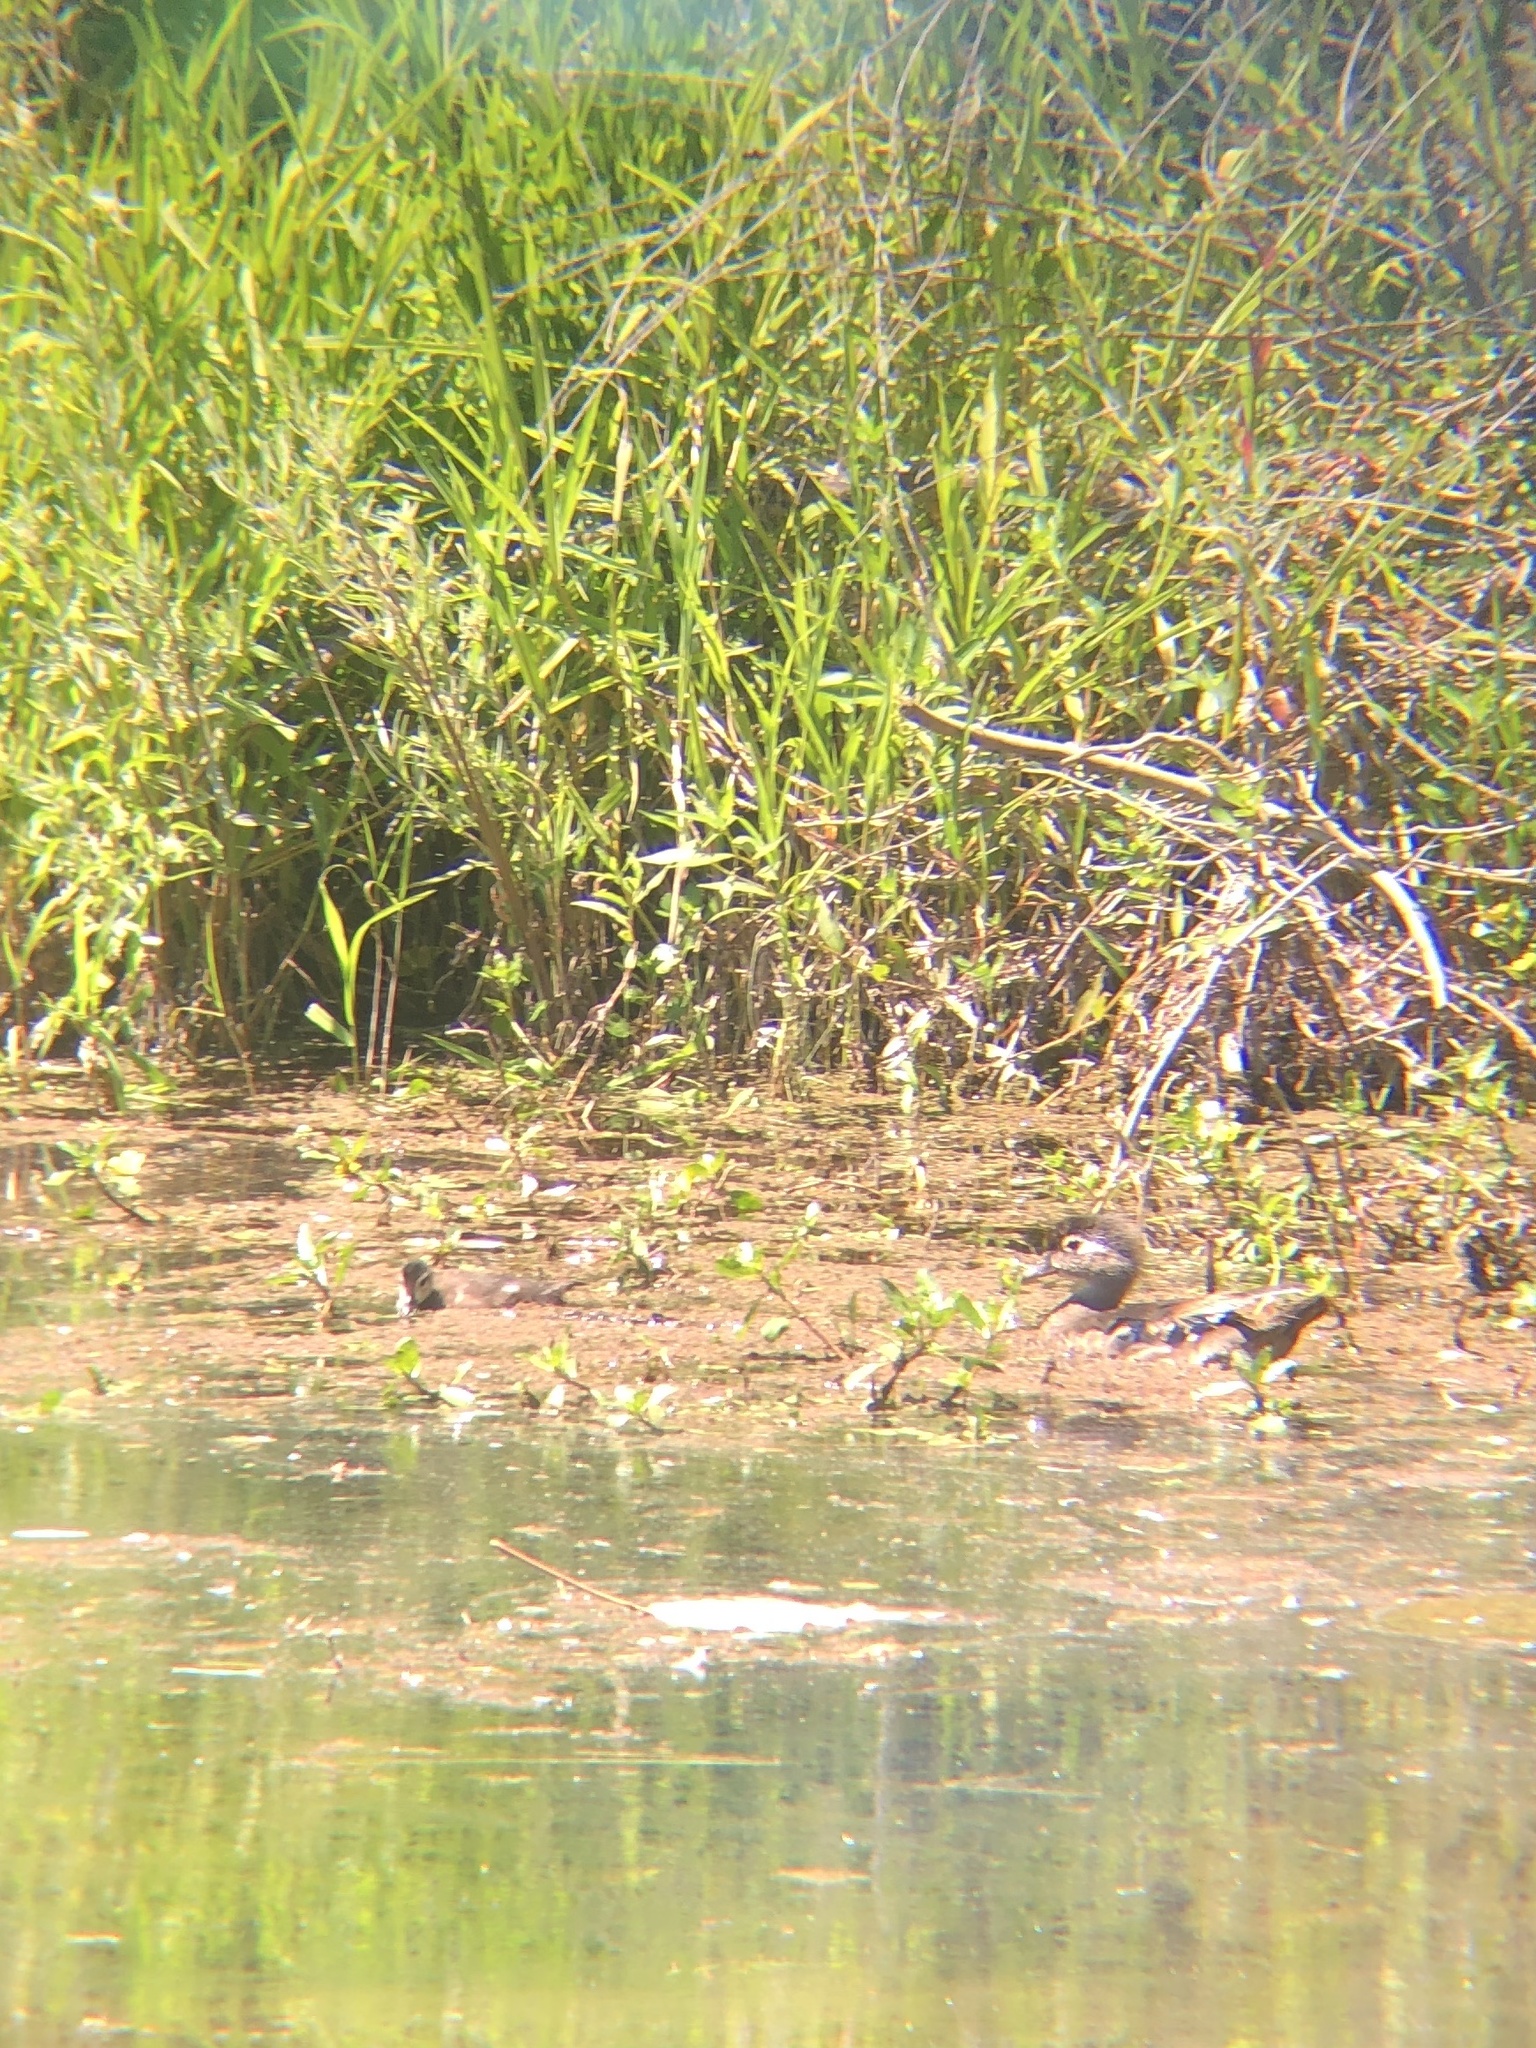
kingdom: Animalia
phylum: Chordata
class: Aves
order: Anseriformes
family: Anatidae
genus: Aix
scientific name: Aix sponsa
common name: Wood duck
